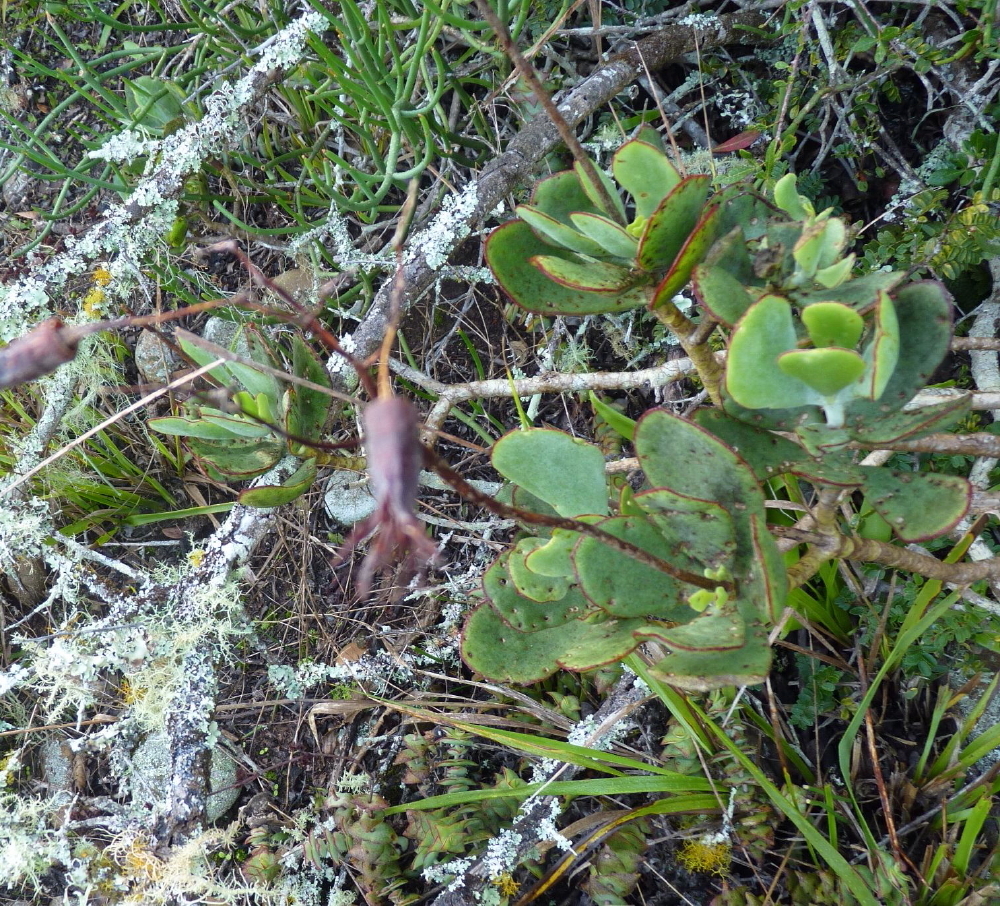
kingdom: Plantae
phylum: Tracheophyta
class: Magnoliopsida
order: Saxifragales
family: Crassulaceae
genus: Cotyledon
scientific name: Cotyledon orbiculata
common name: Pig's ear
